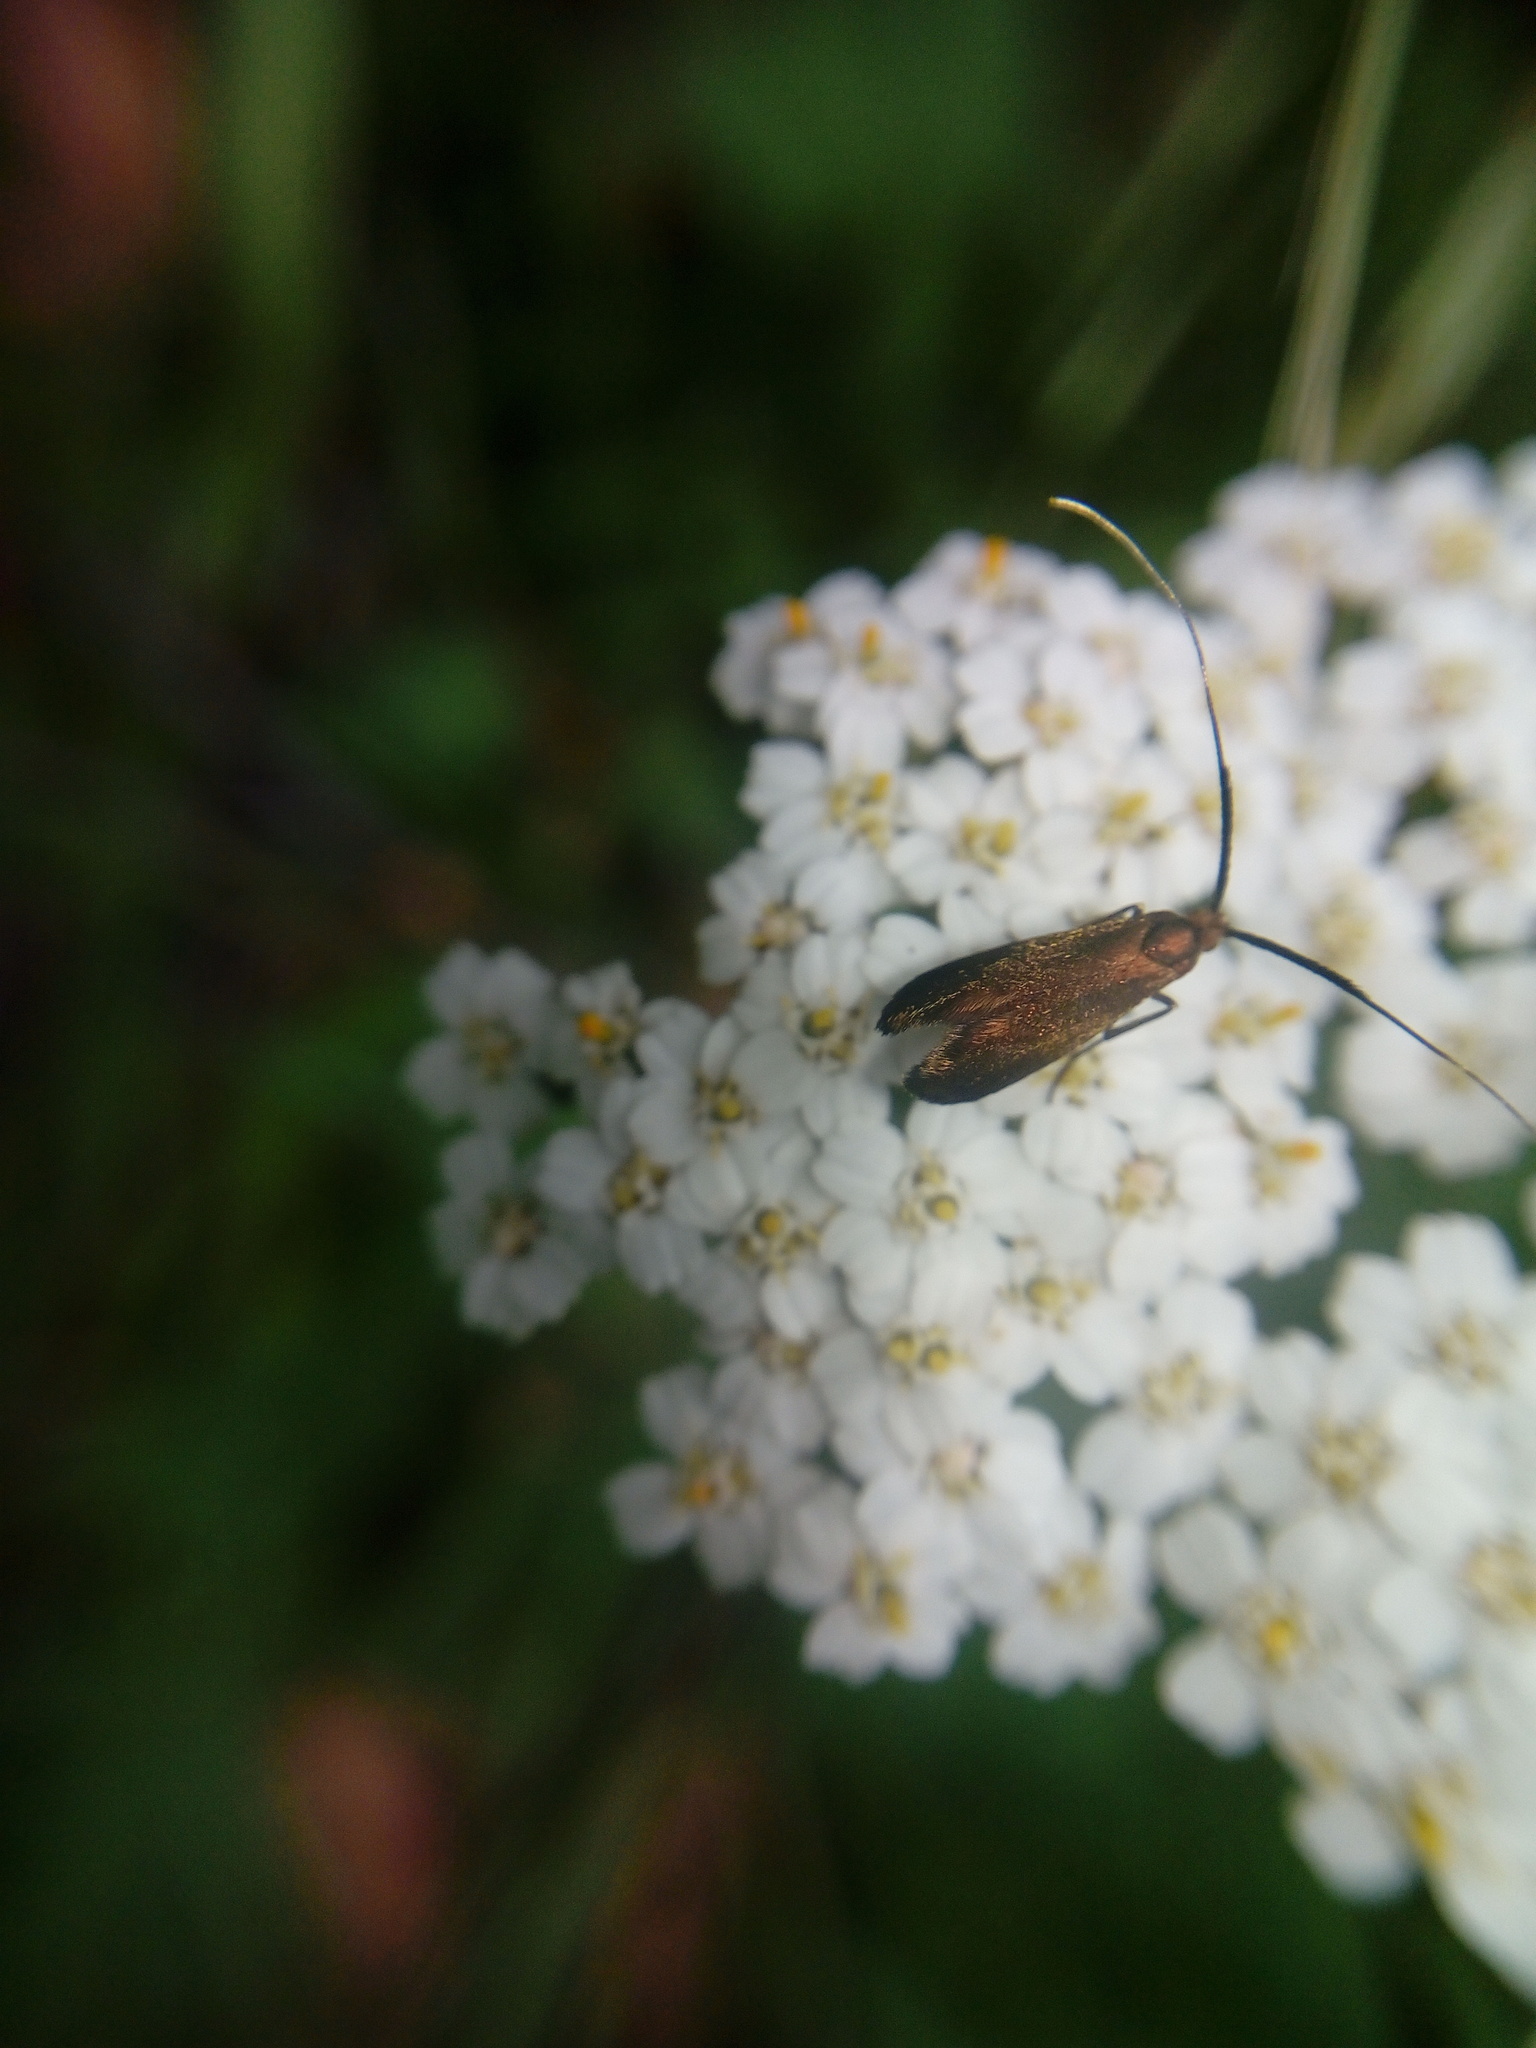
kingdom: Animalia
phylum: Arthropoda
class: Insecta
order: Lepidoptera
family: Adelidae
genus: Adela
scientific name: Adela violella
